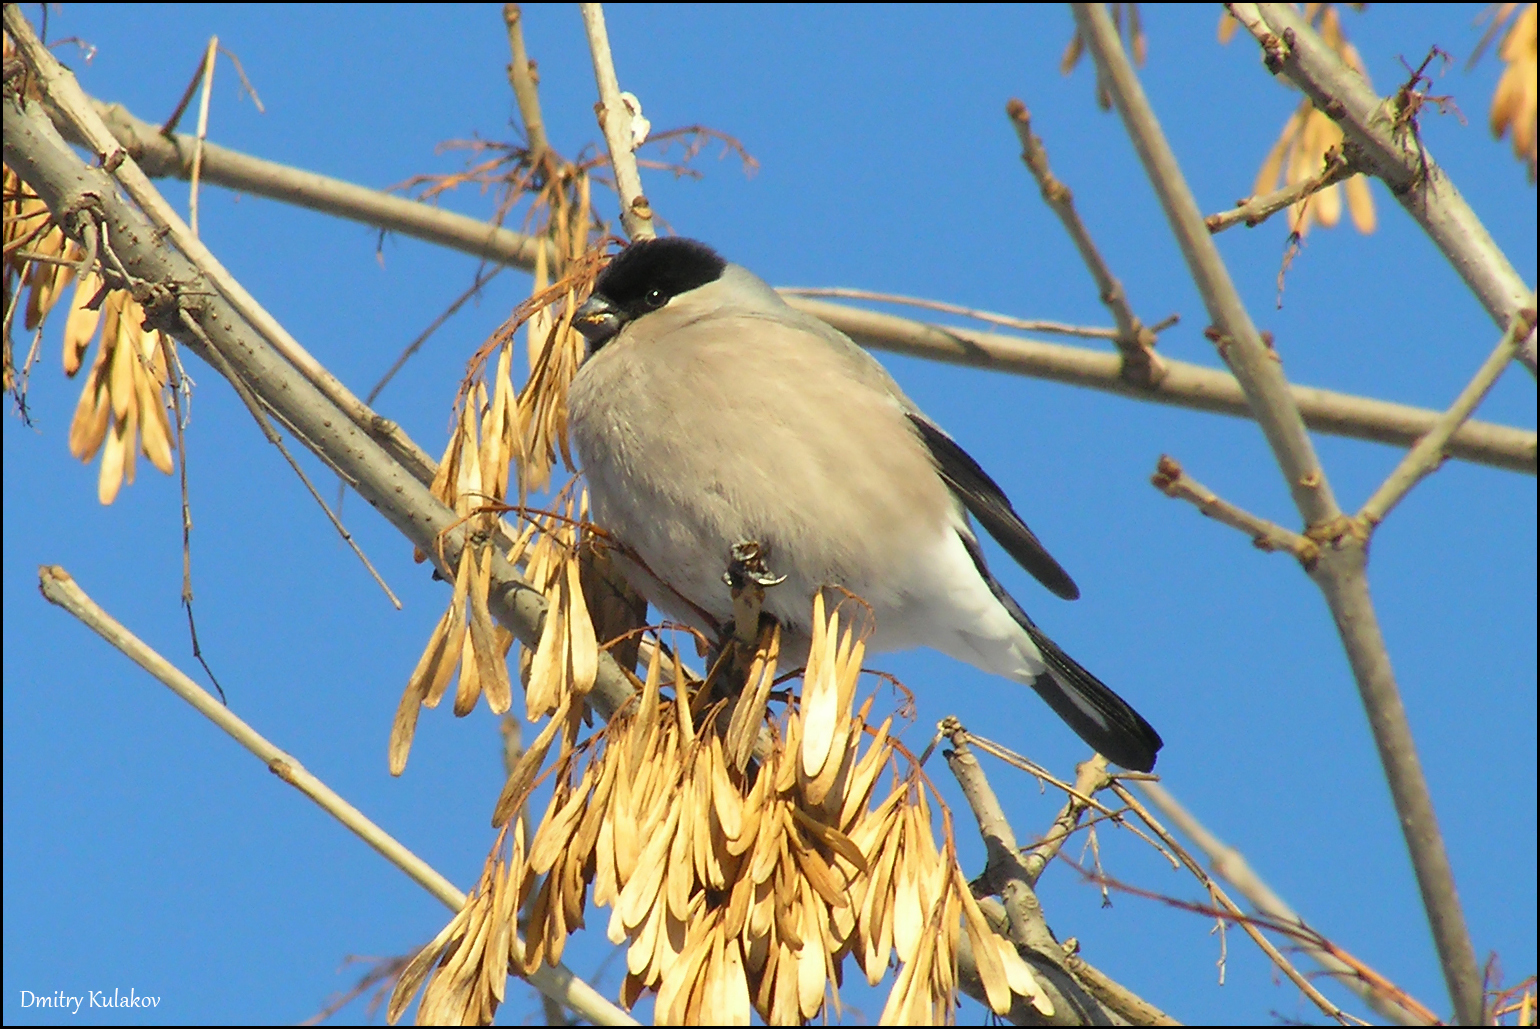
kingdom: Animalia
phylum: Chordata
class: Aves
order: Passeriformes
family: Fringillidae
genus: Pyrrhula
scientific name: Pyrrhula pyrrhula
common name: Eurasian bullfinch
